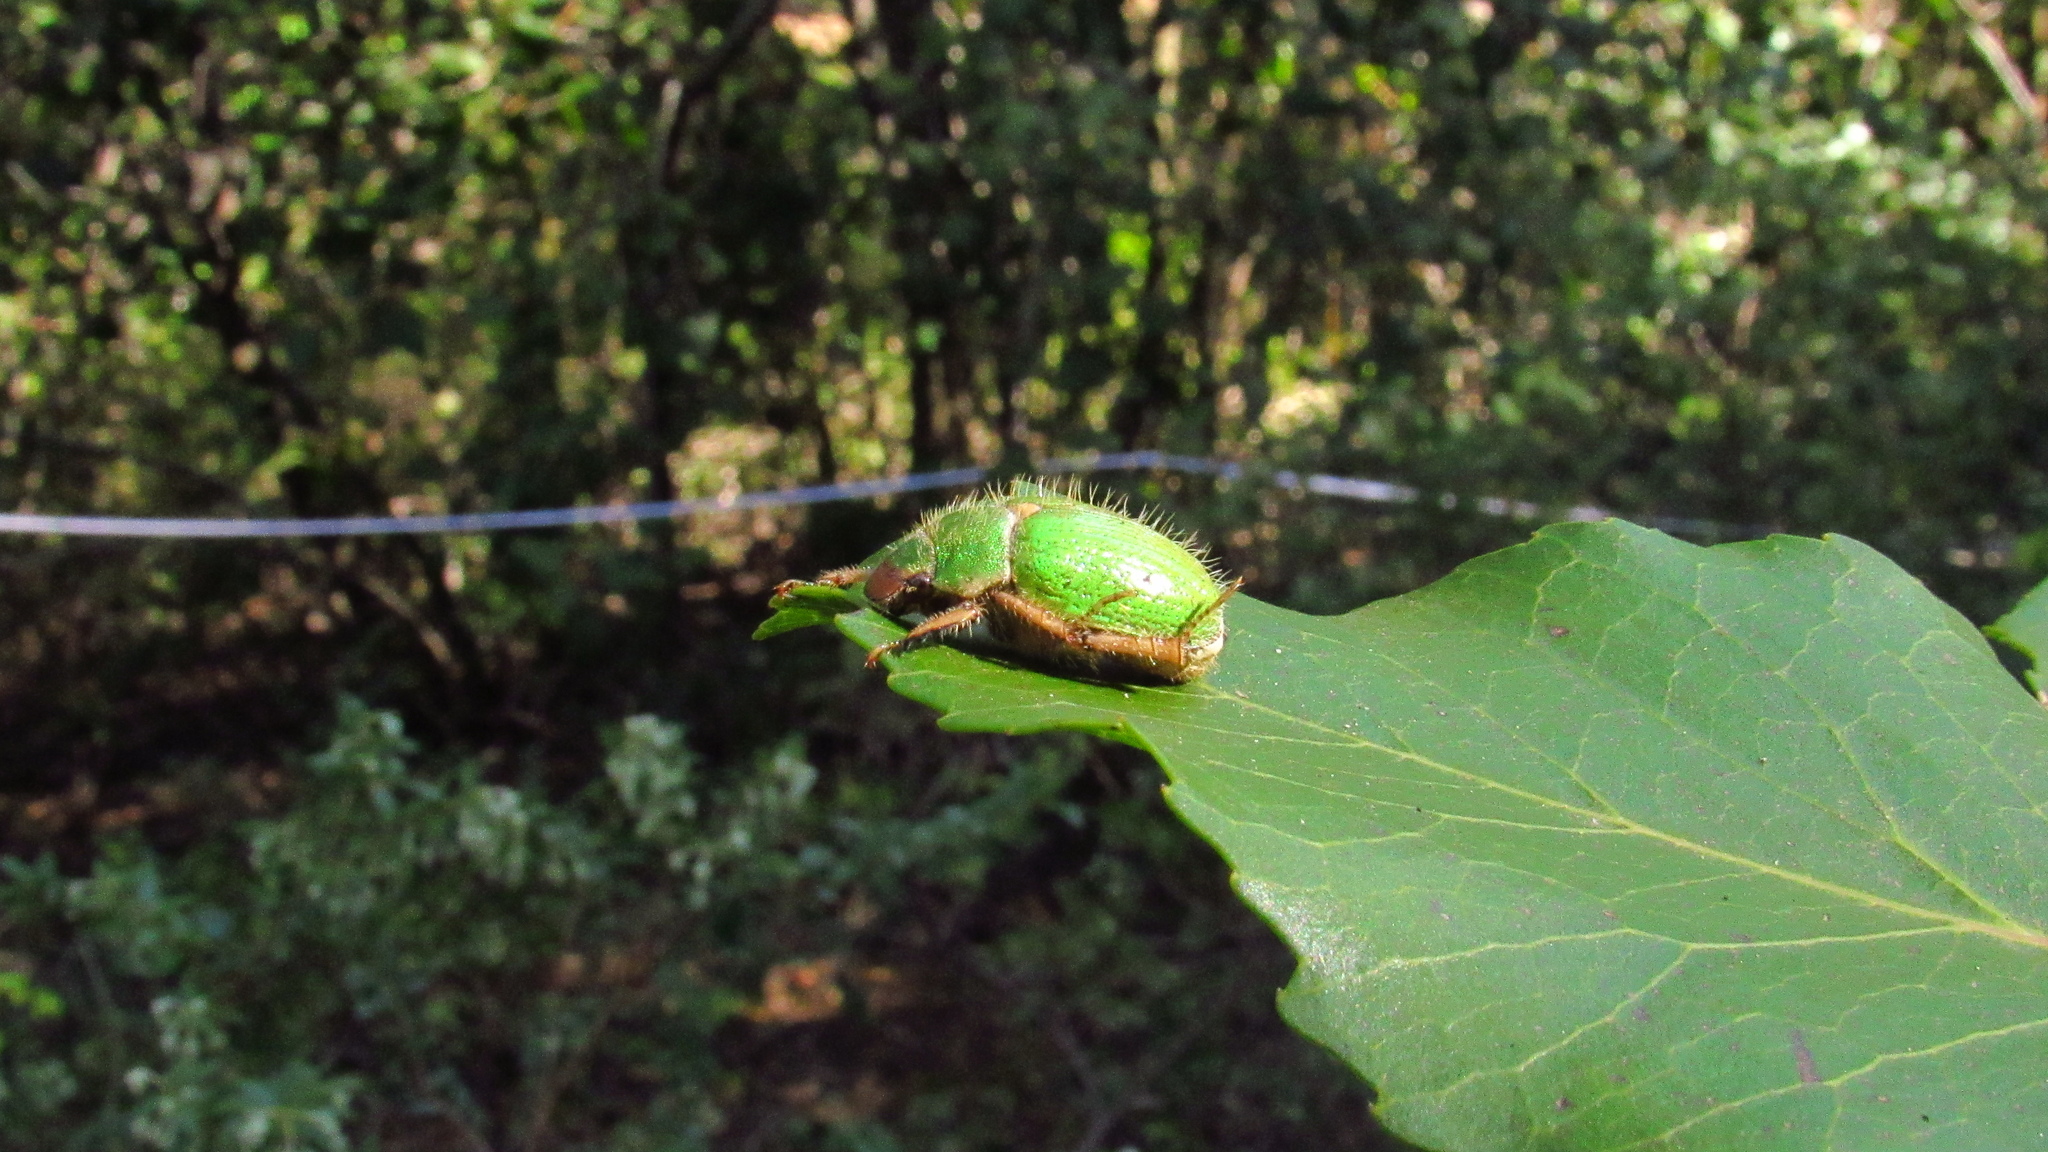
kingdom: Animalia
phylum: Arthropoda
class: Insecta
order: Coleoptera
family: Scarabaeidae
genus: Brachysternus
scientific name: Brachysternus prasinus
